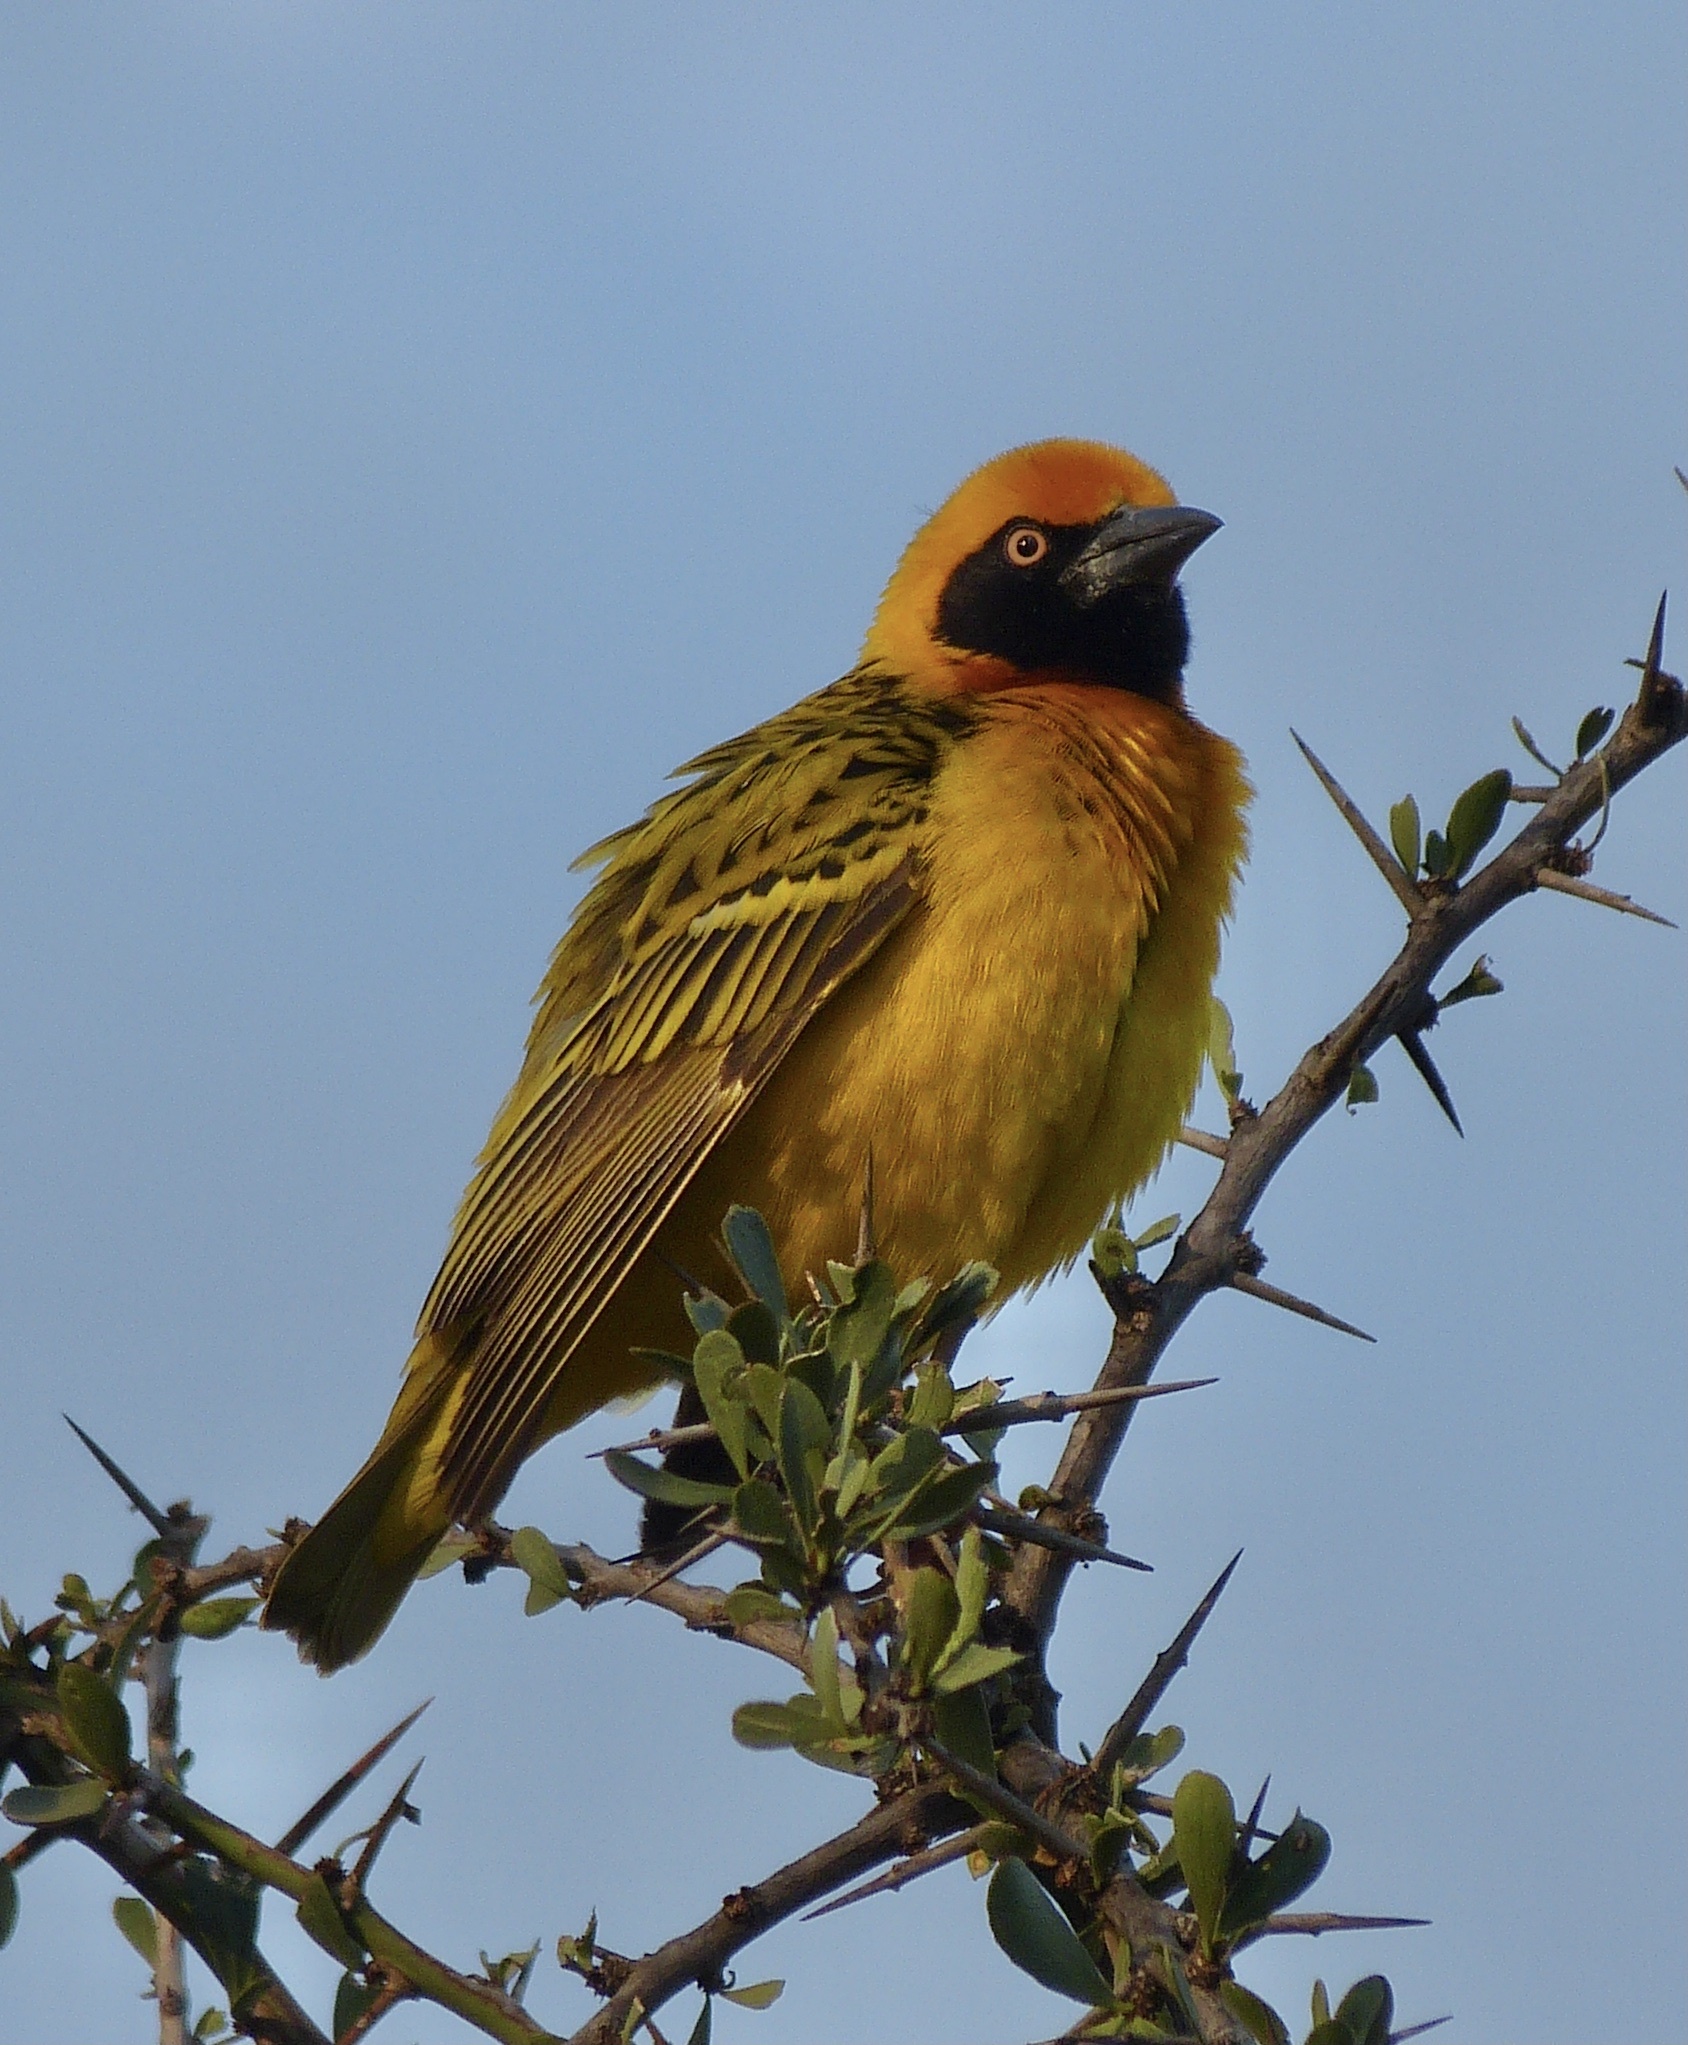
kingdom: Animalia
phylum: Chordata
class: Aves
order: Passeriformes
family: Ploceidae
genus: Ploceus
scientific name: Ploceus spekei
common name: Speke's weaver
